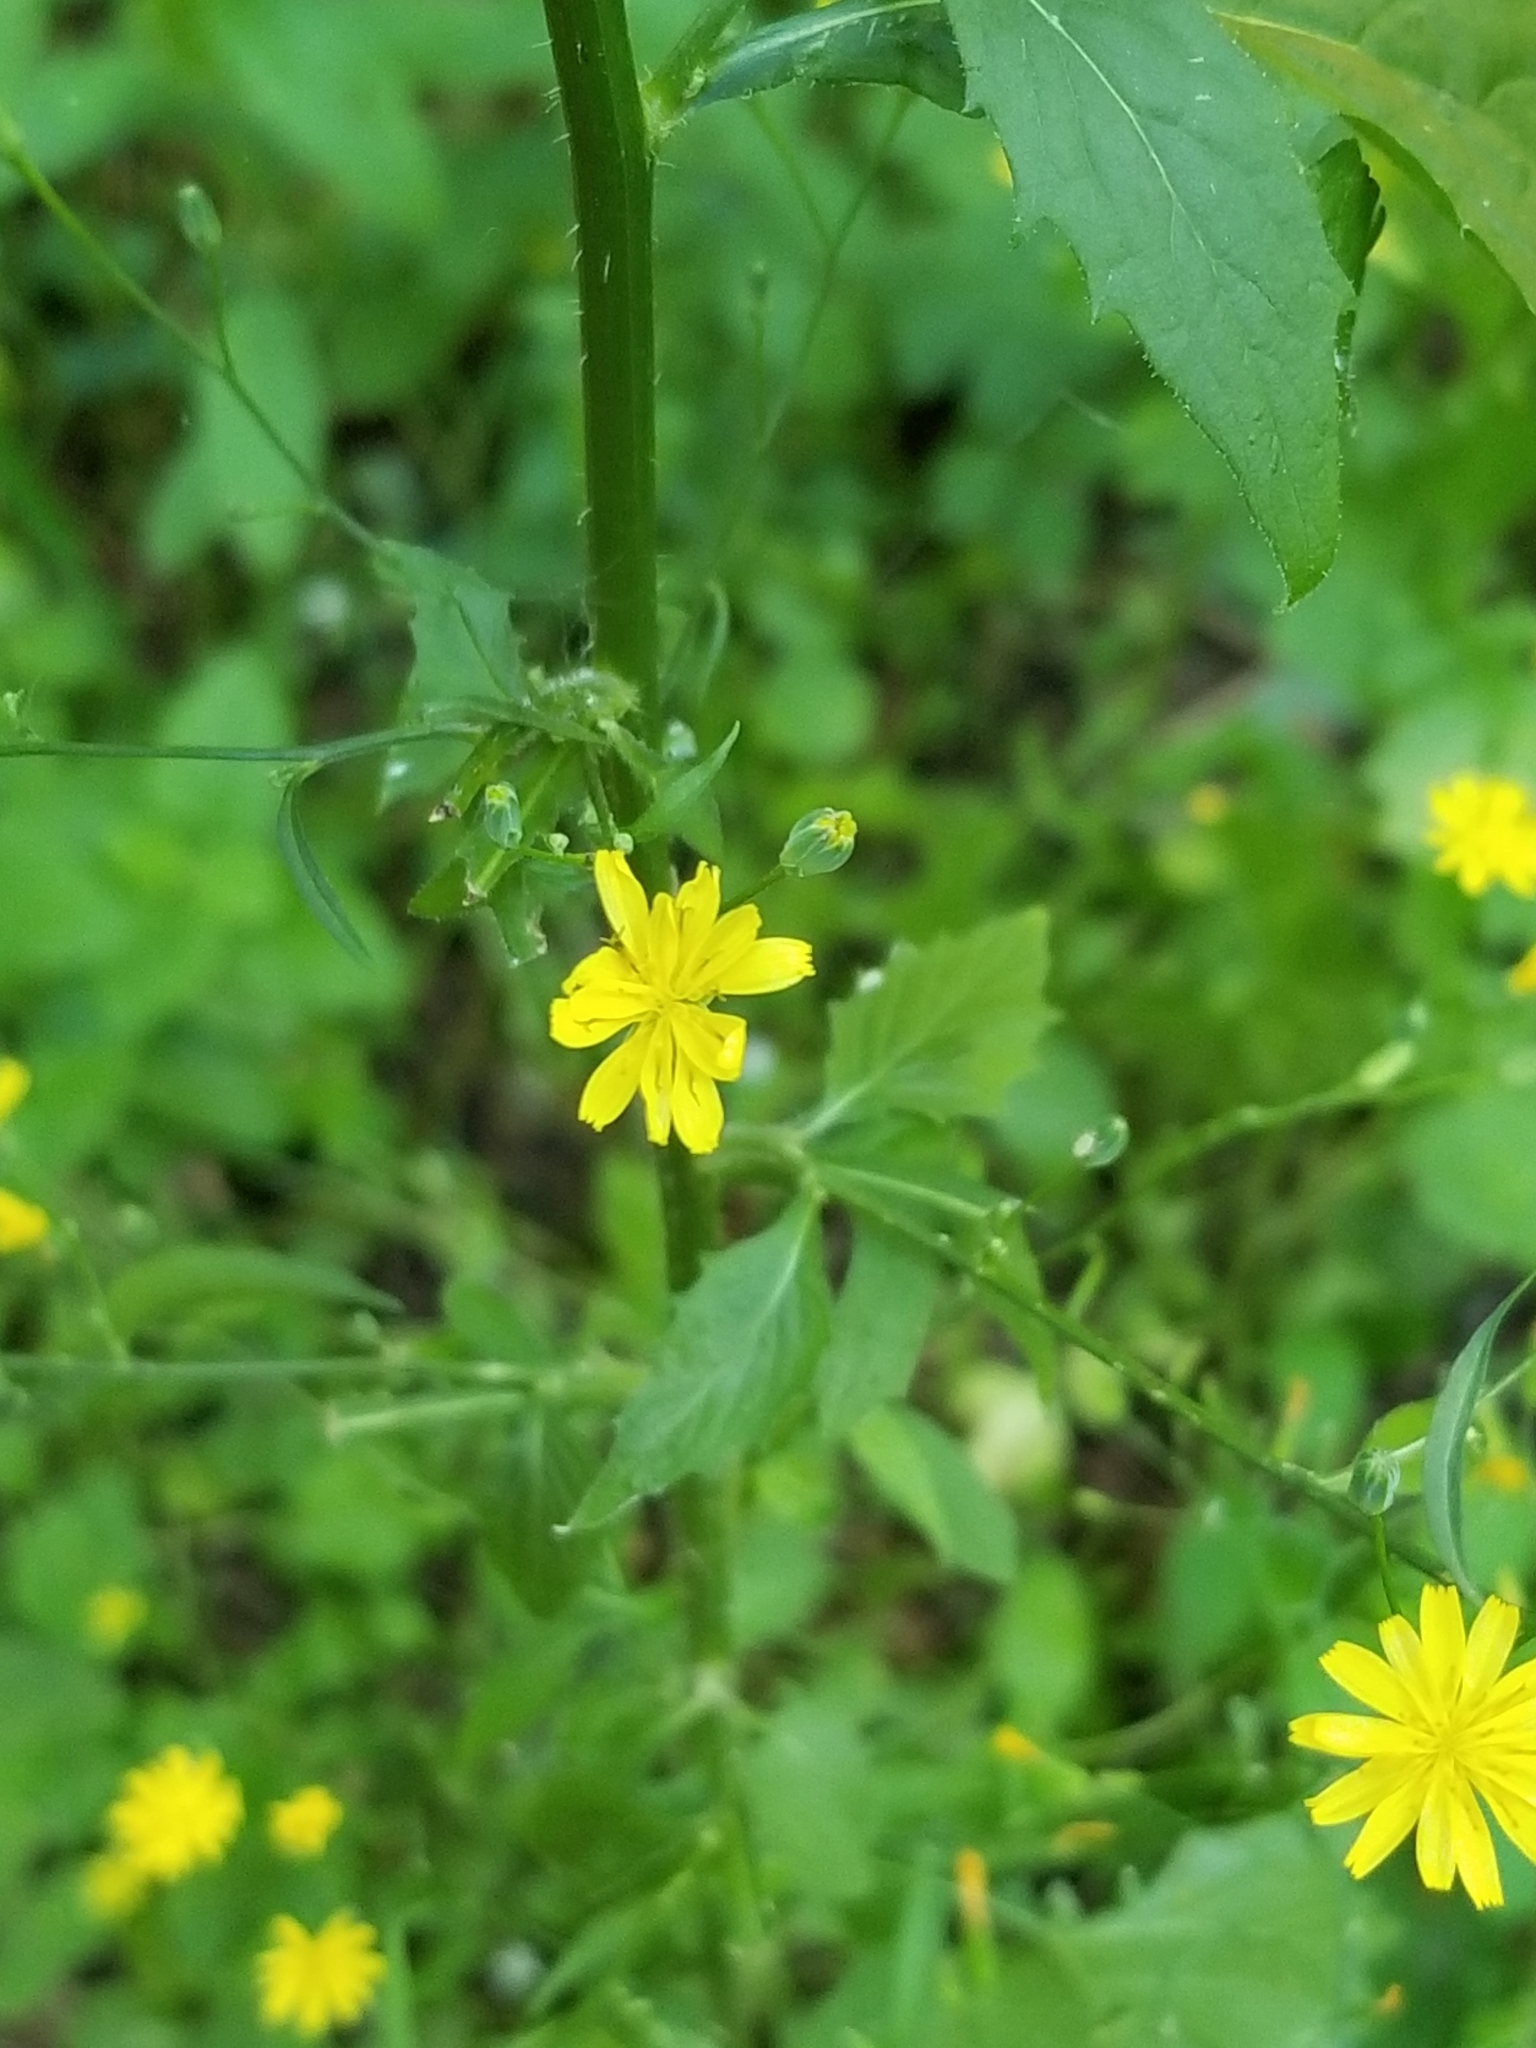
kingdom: Plantae
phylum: Tracheophyta
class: Magnoliopsida
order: Asterales
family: Asteraceae
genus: Lapsana
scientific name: Lapsana communis
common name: Nipplewort
